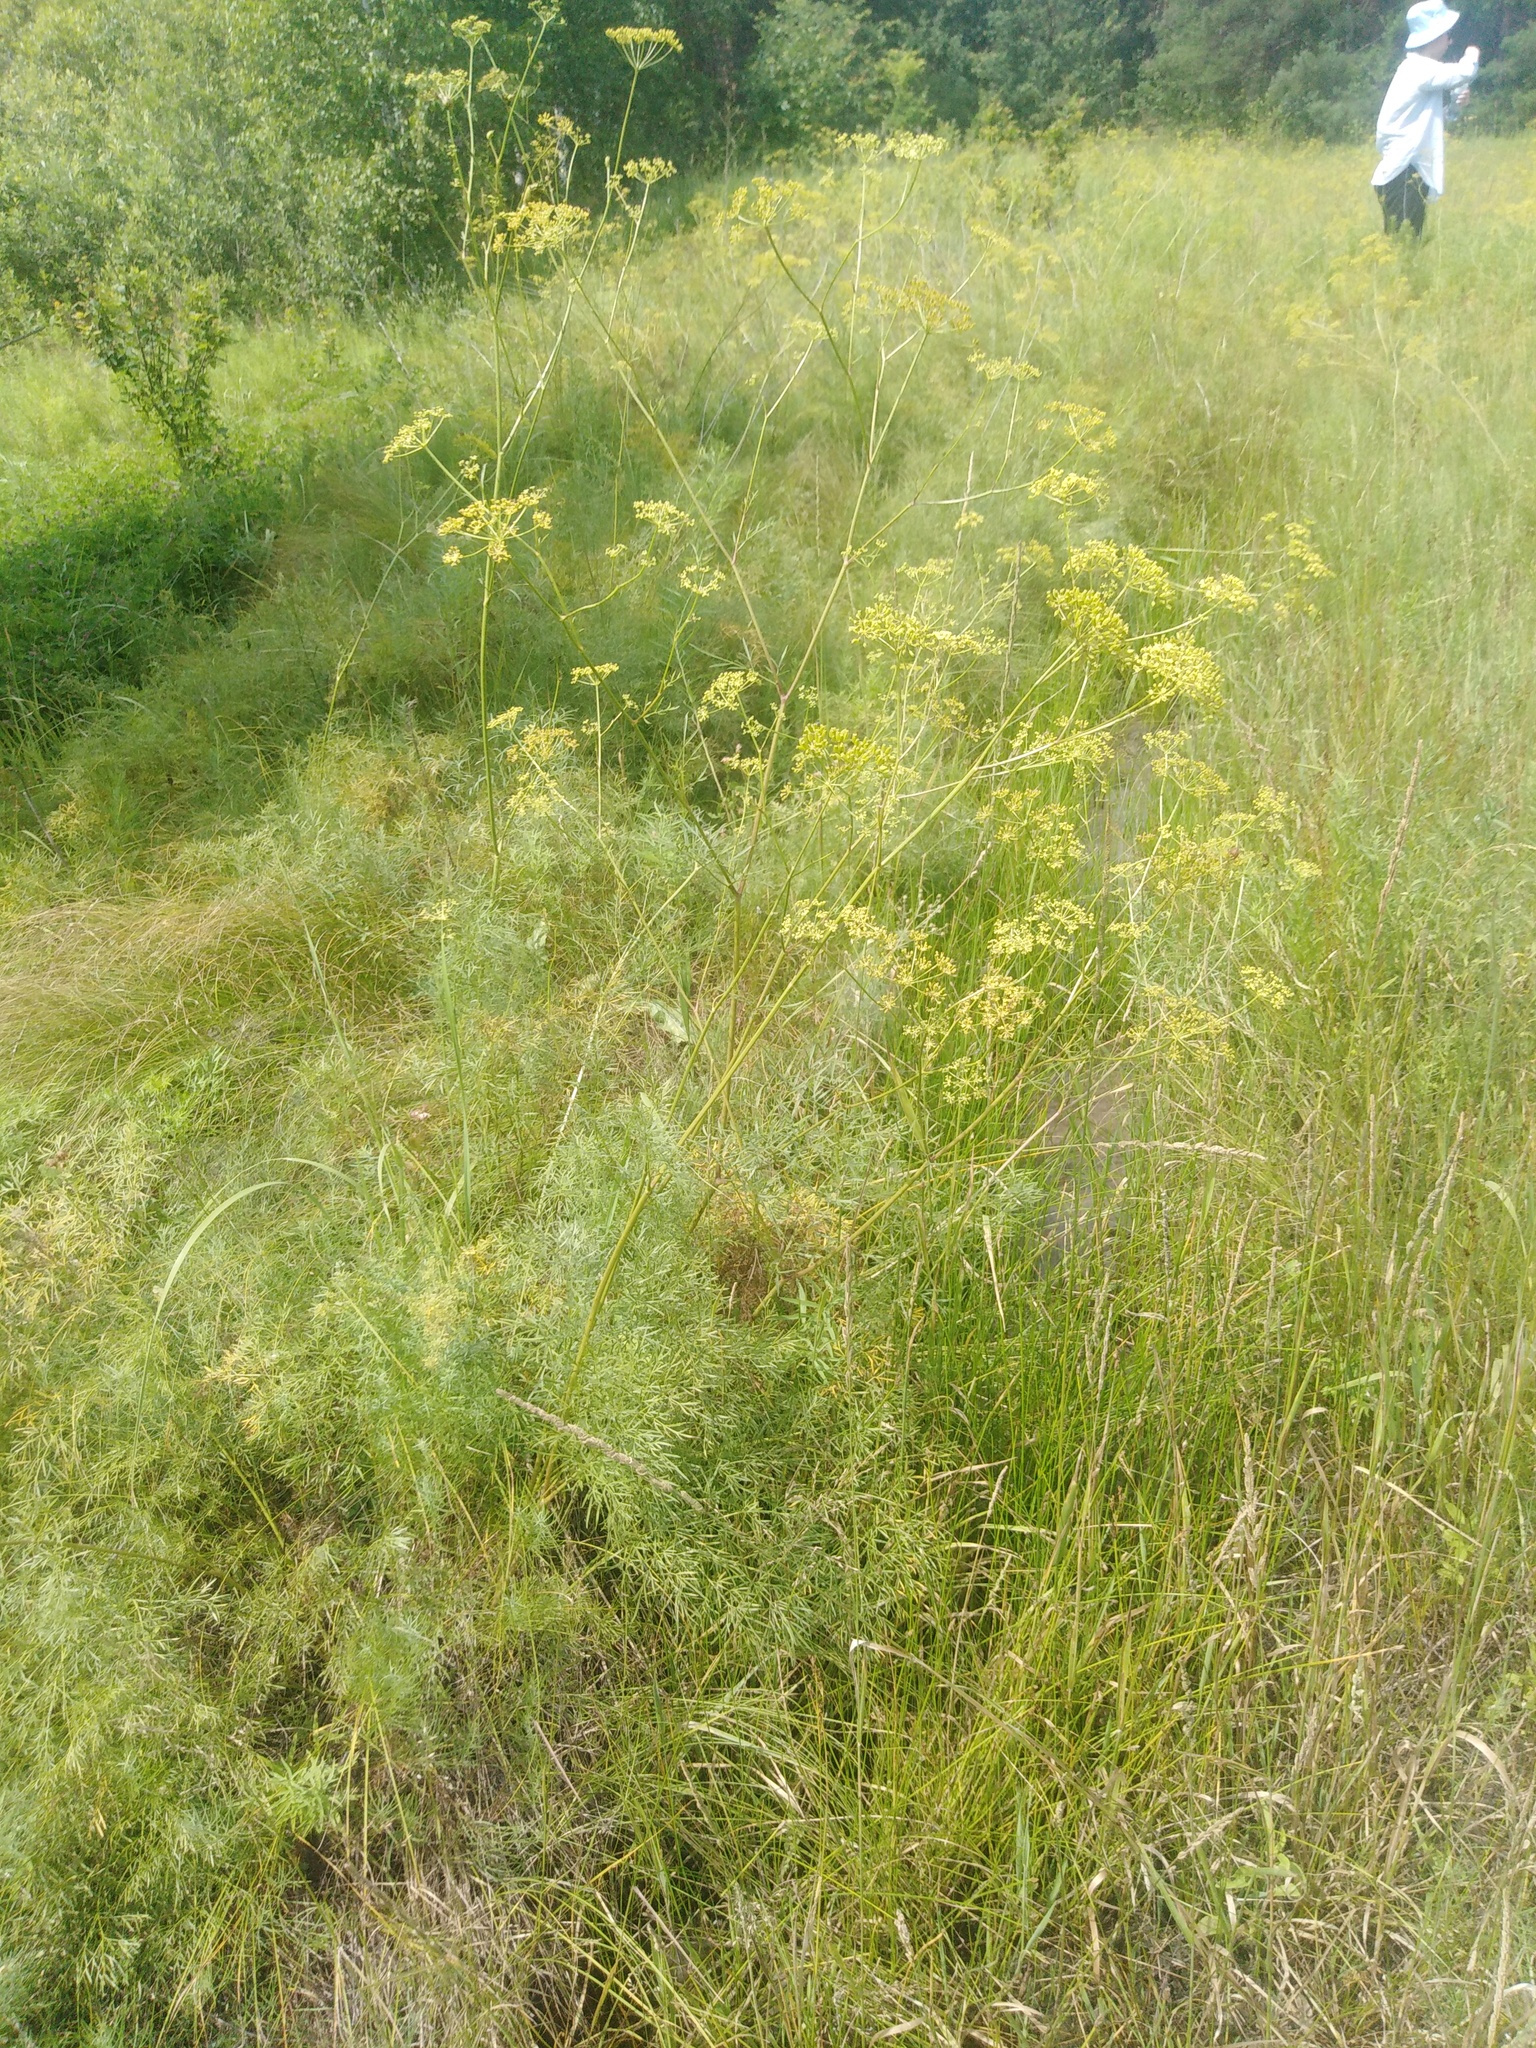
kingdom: Plantae
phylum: Tracheophyta
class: Magnoliopsida
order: Apiales
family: Apiaceae
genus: Silaum
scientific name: Silaum silaus
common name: Pepper-saxifrage
